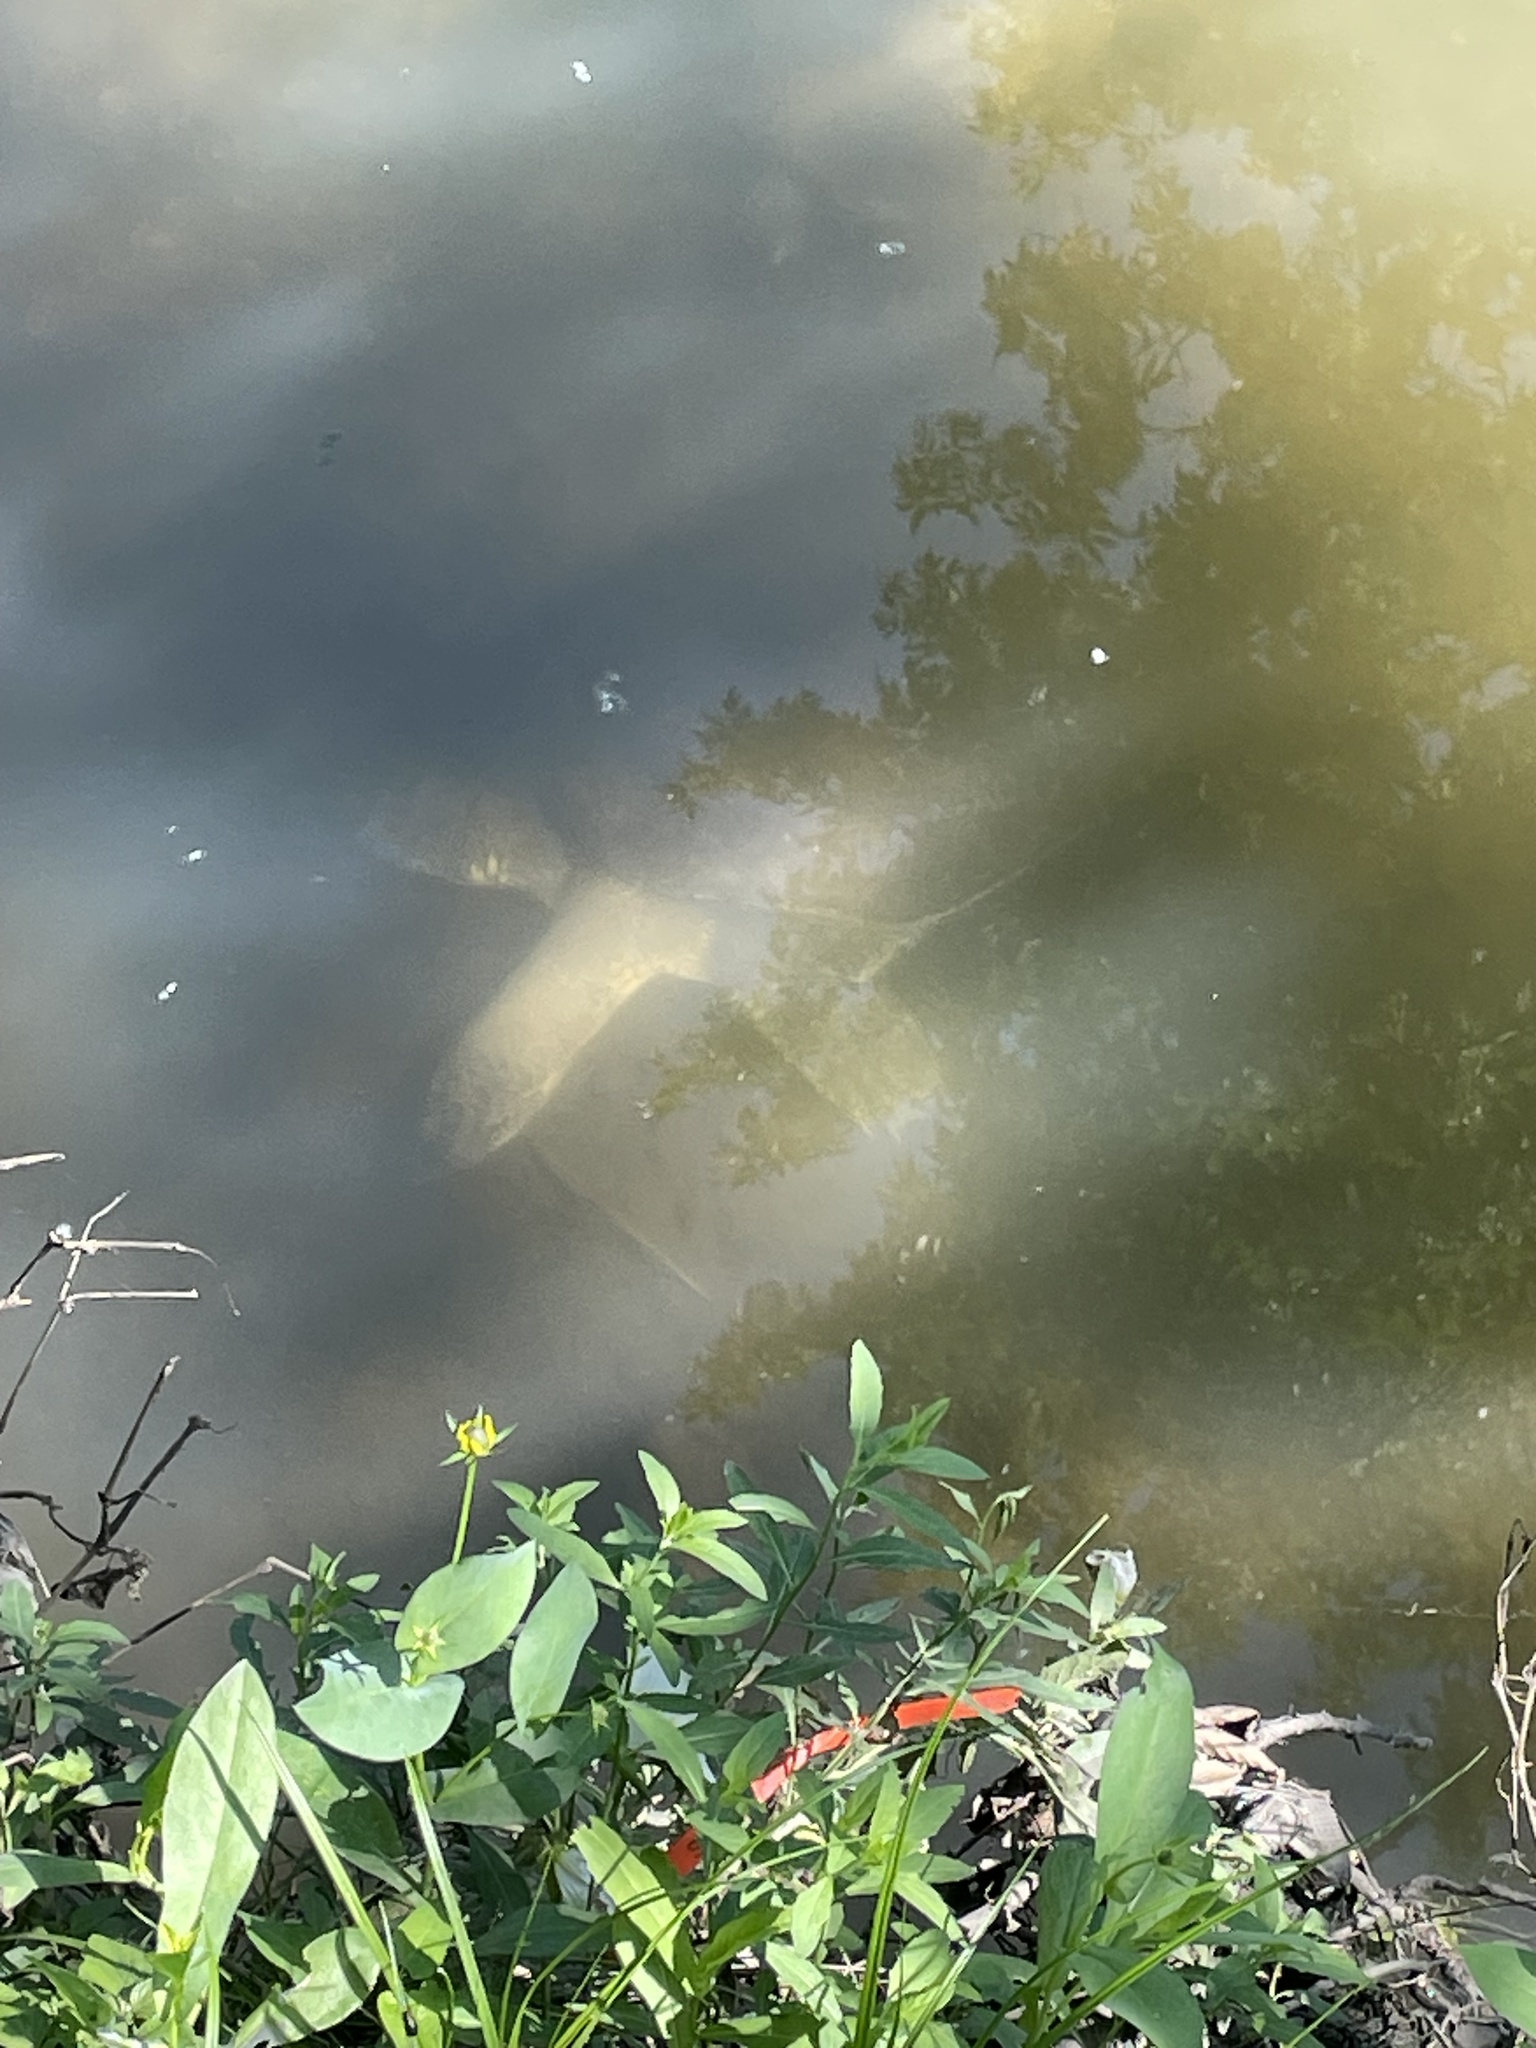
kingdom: Animalia
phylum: Chordata
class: Testudines
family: Trionychidae
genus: Apalone
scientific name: Apalone spinifera
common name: Spiny softshell turtle
